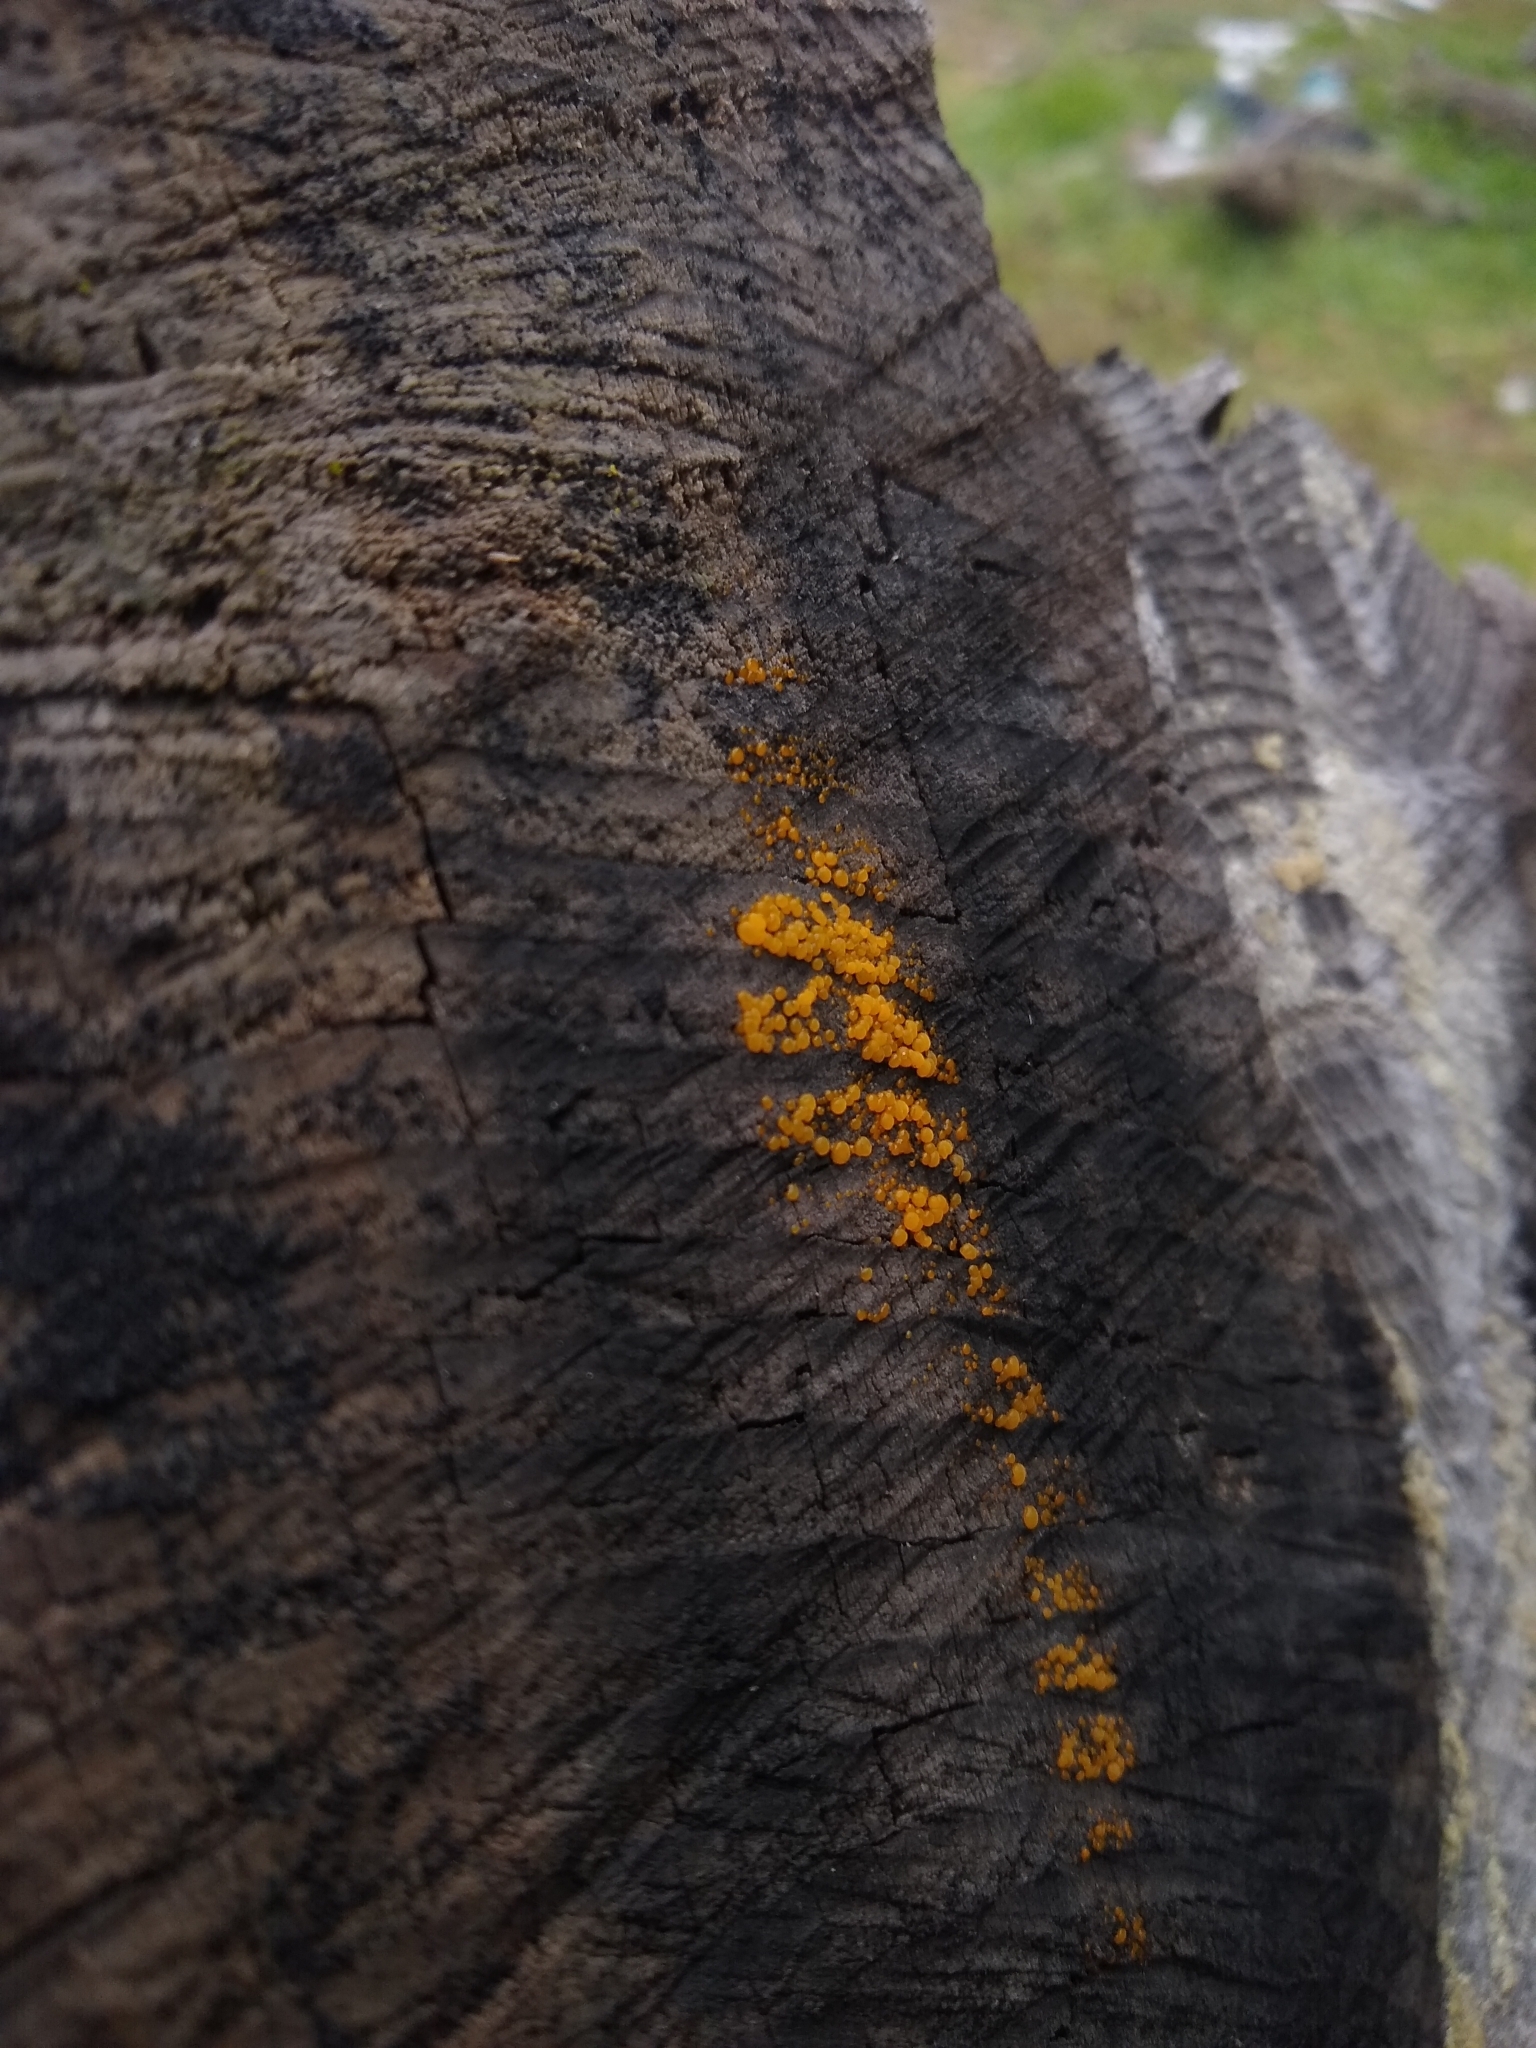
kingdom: Fungi
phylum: Ascomycota
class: Leotiomycetes
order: Helotiales
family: Pezizellaceae
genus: Calycina
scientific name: Calycina citrina
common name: Yellow fairy cups
